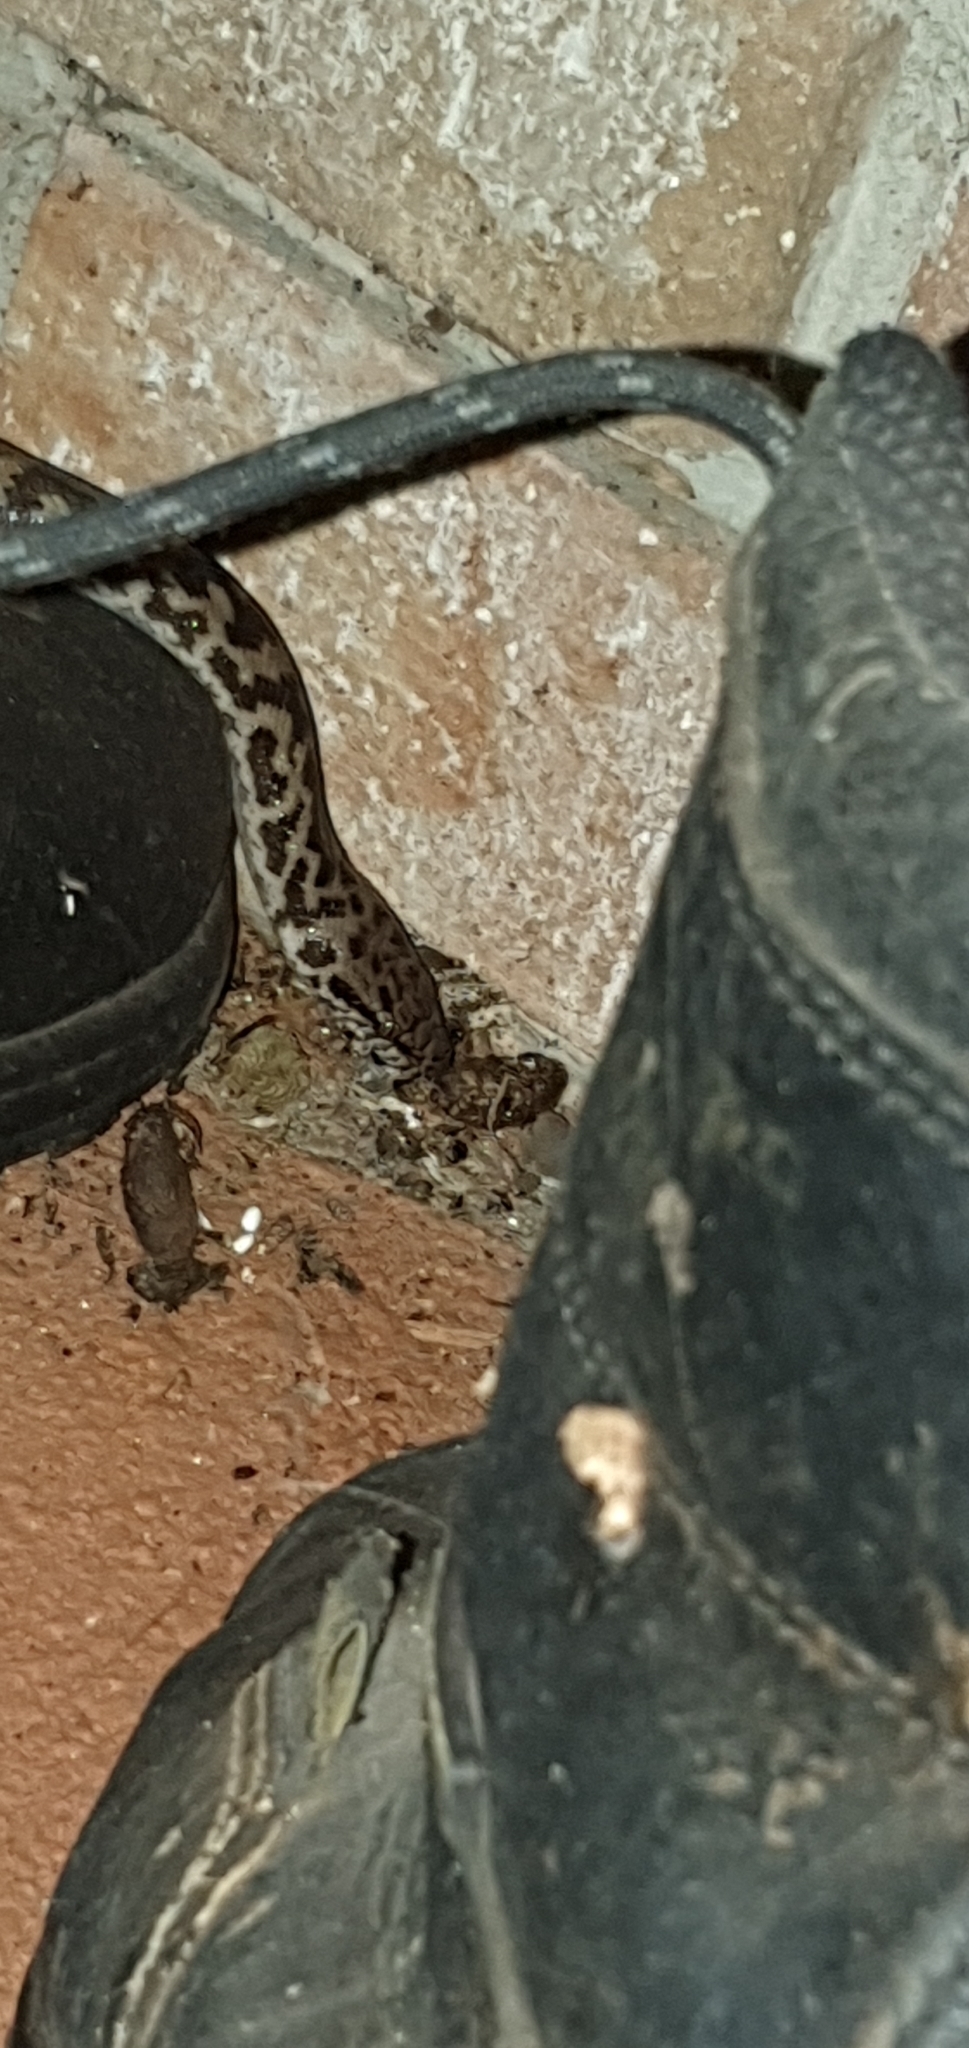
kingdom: Animalia
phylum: Chordata
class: Squamata
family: Pythonidae
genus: Antaresia
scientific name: Antaresia maculosa
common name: Eastern childrens python
